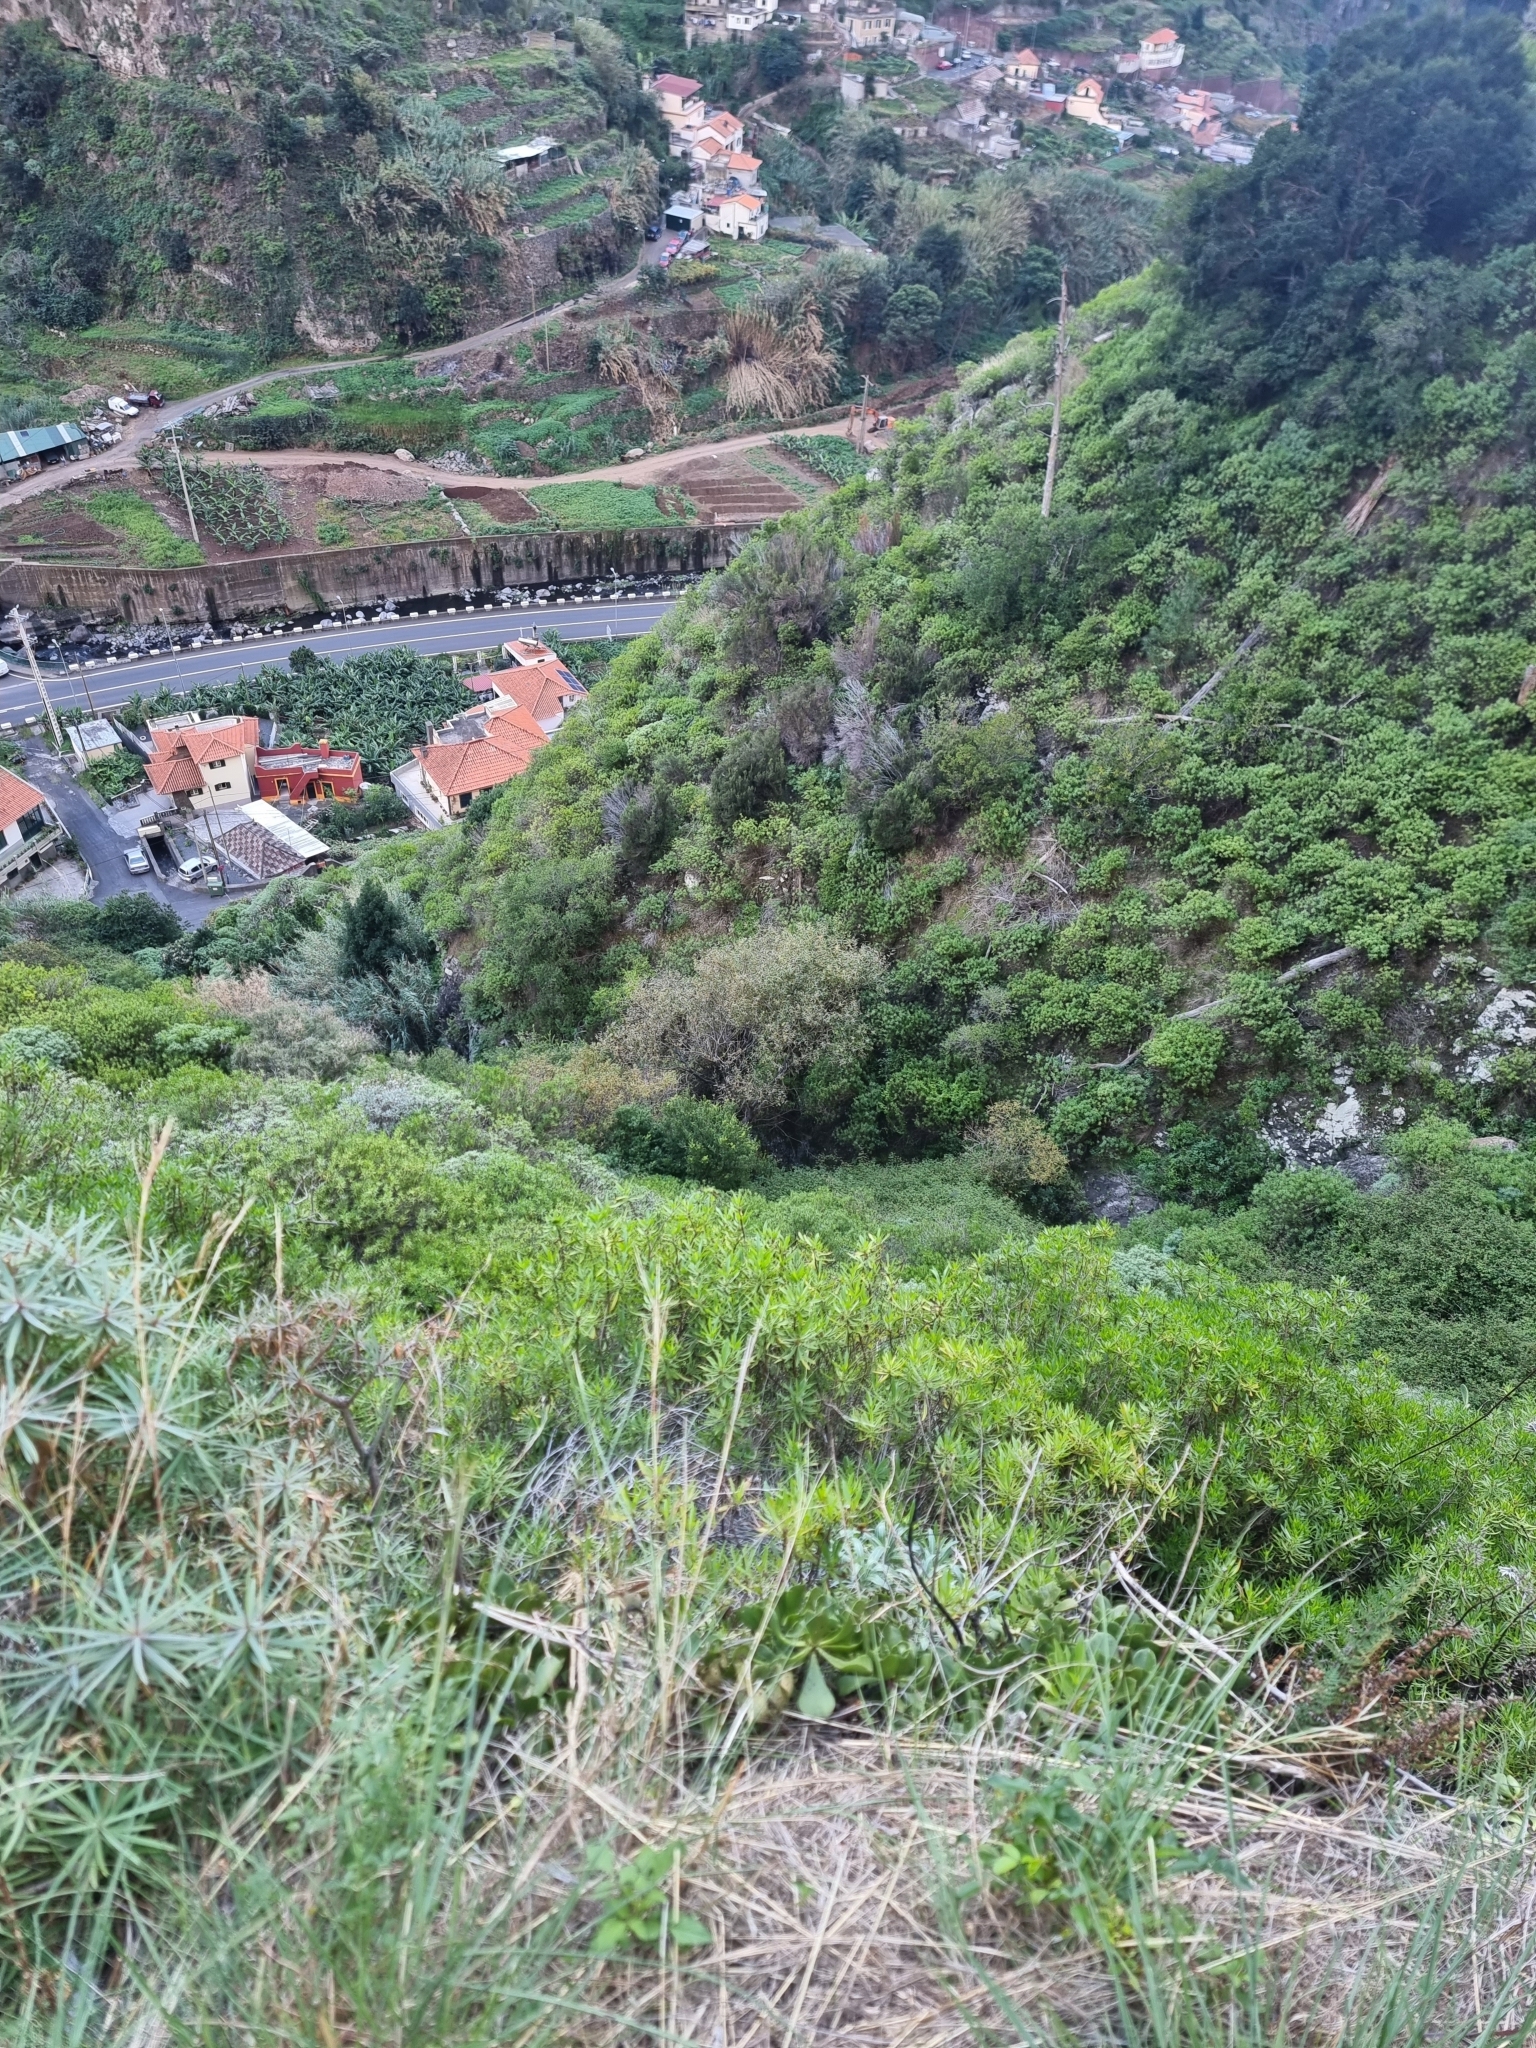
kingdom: Plantae
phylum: Tracheophyta
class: Magnoliopsida
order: Malpighiales
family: Salicaceae
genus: Salix
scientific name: Salix canariensis
